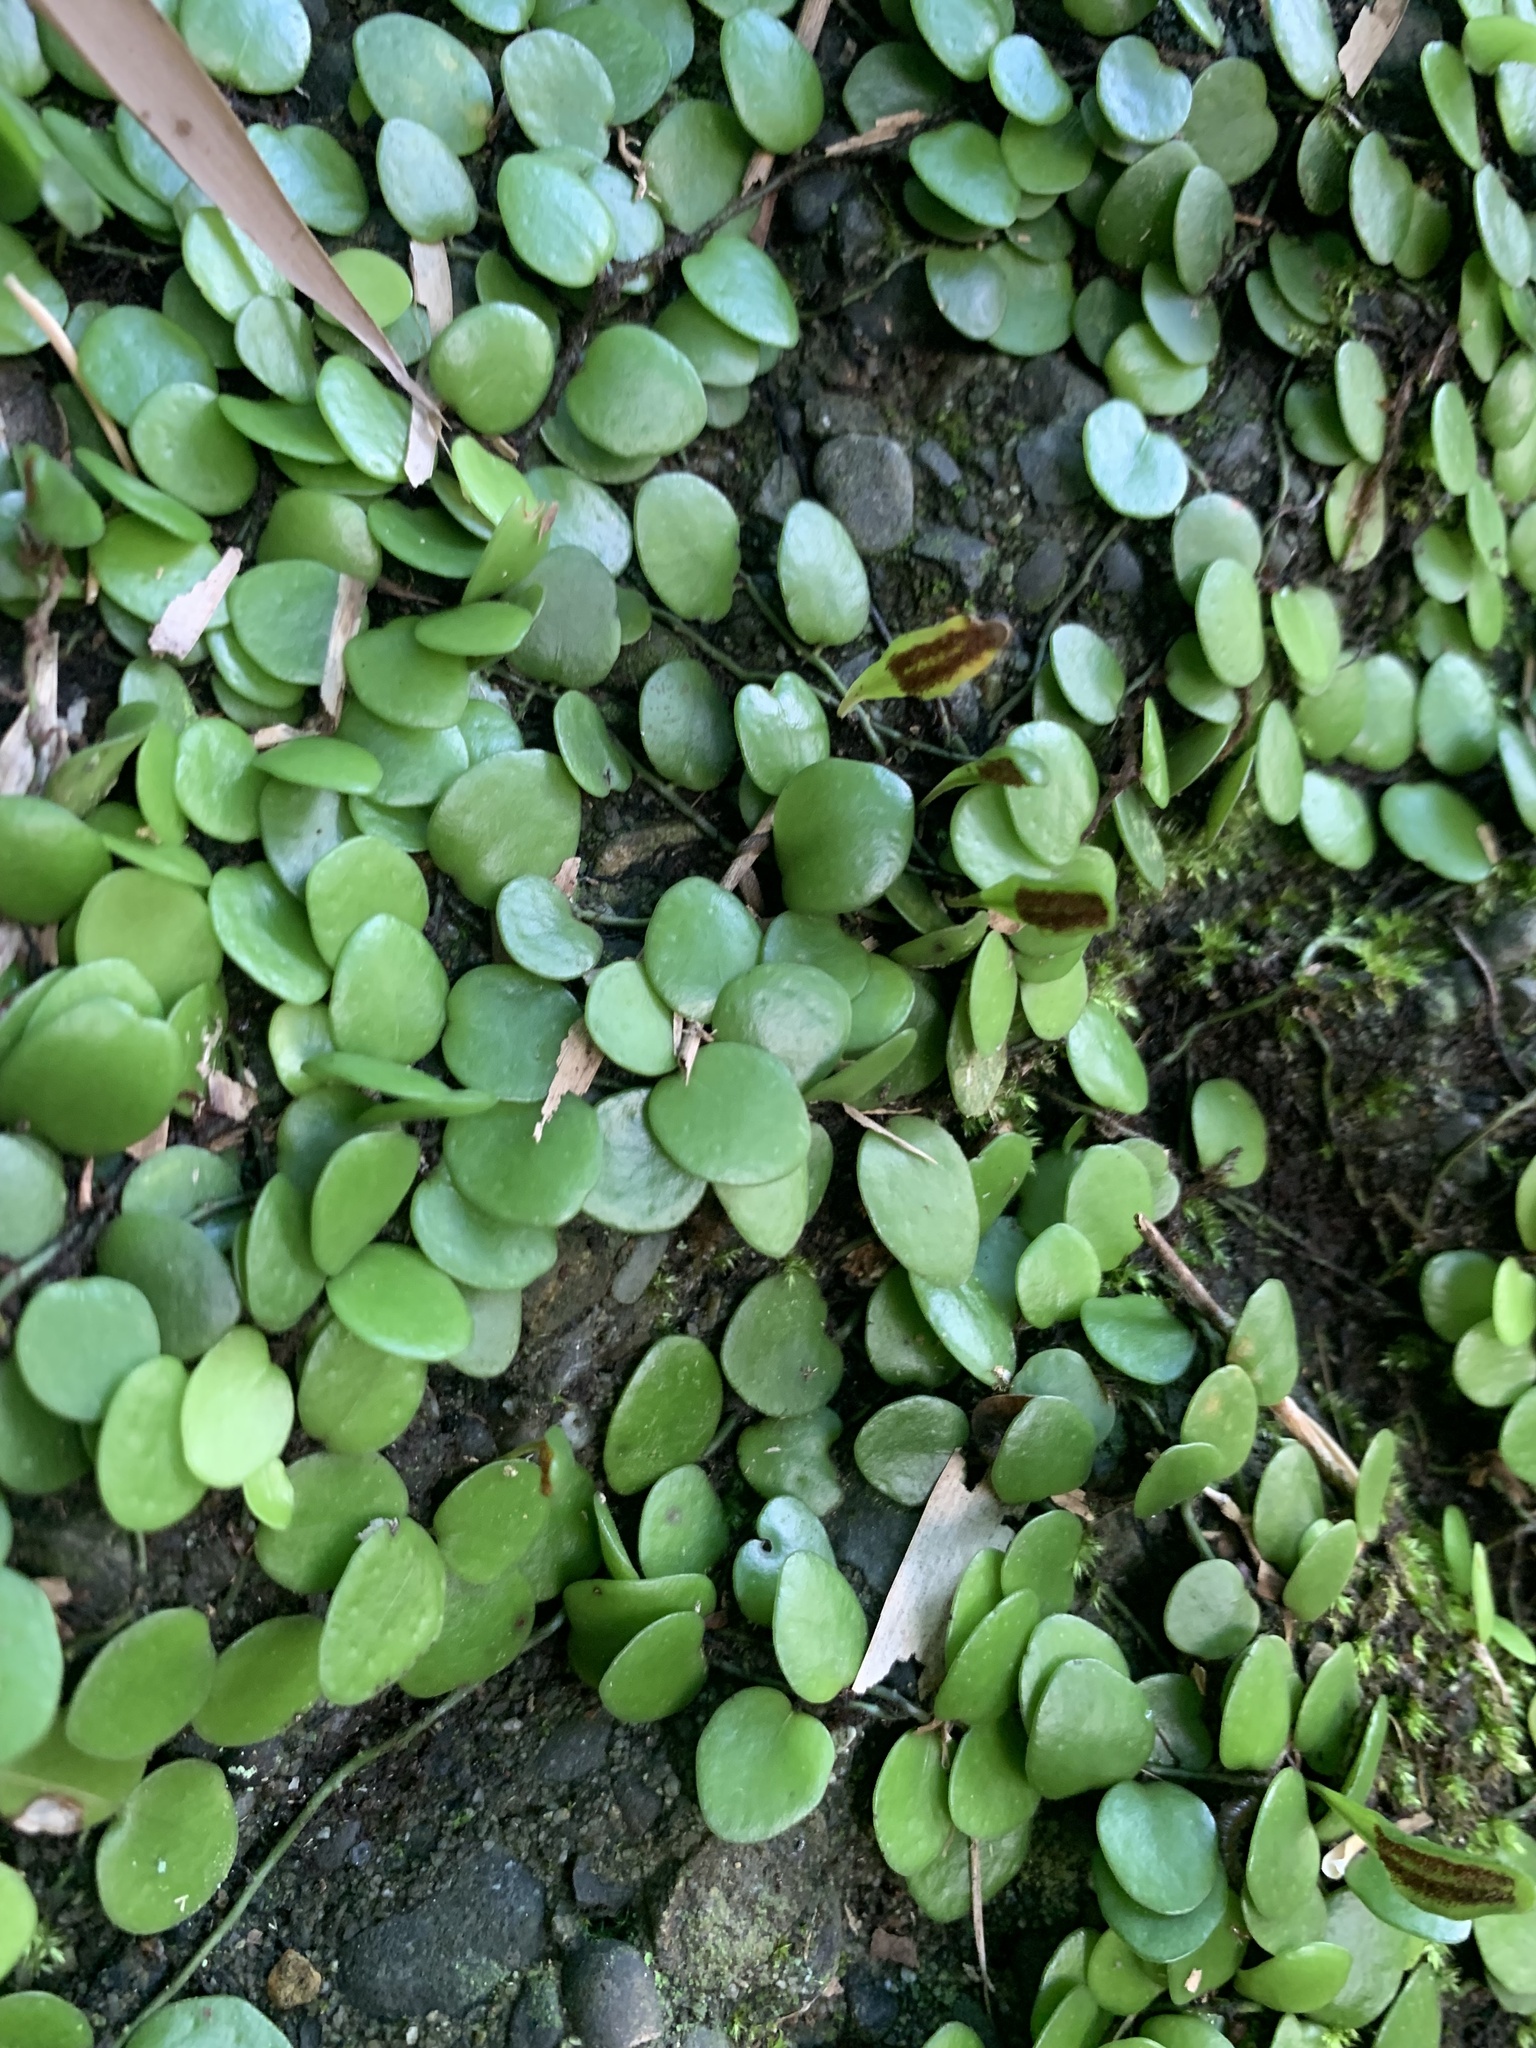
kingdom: Plantae
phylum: Tracheophyta
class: Polypodiopsida
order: Polypodiales
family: Polypodiaceae
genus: Lepisorus
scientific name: Lepisorus microphyllus
